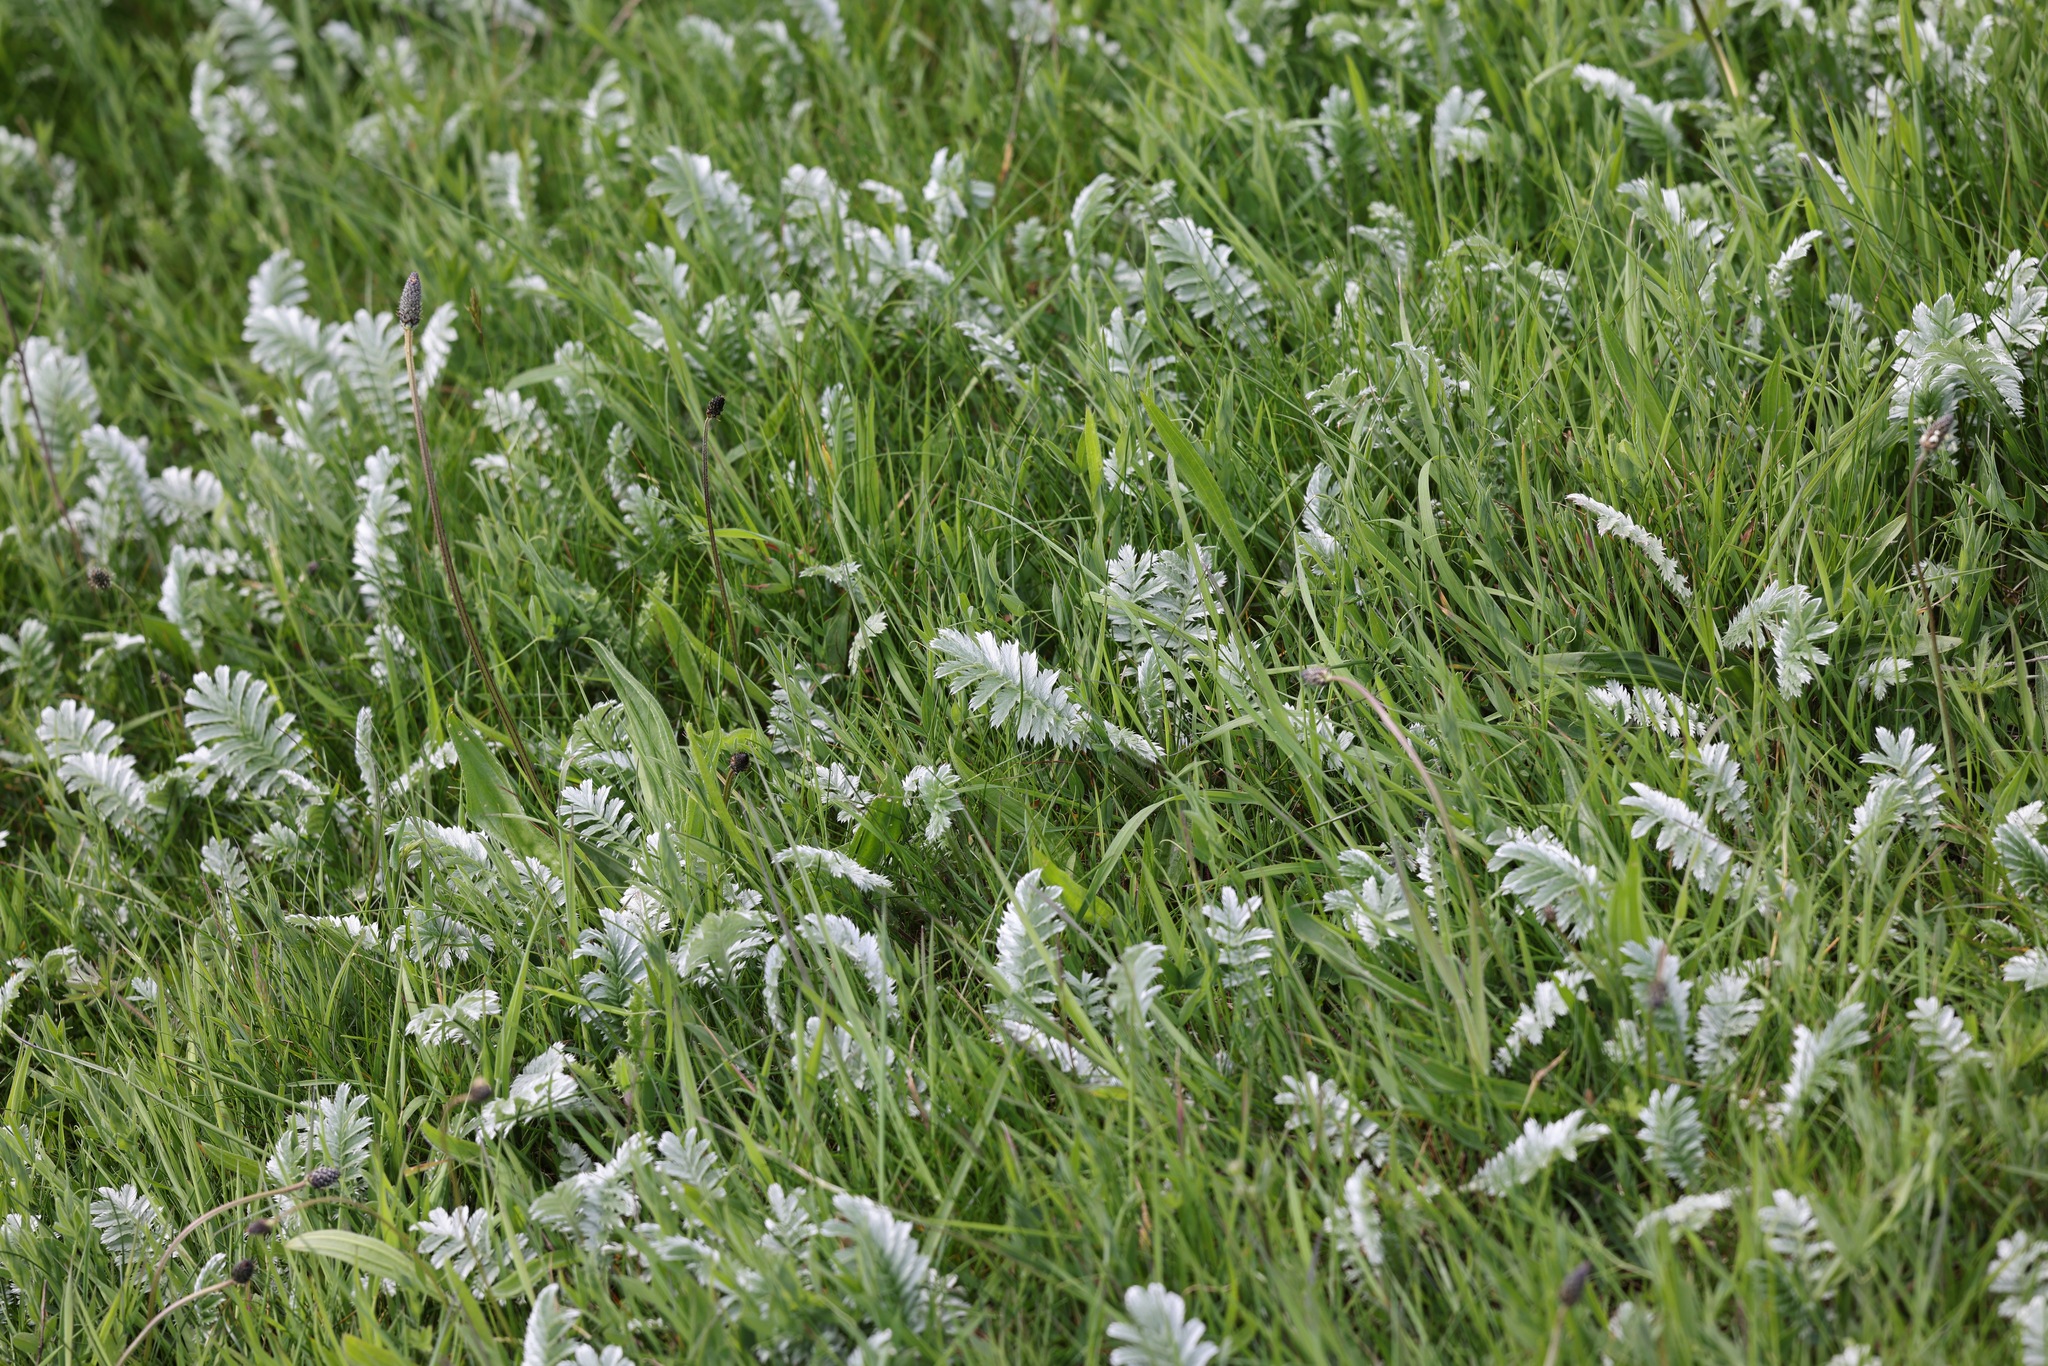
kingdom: Plantae
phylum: Tracheophyta
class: Magnoliopsida
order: Rosales
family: Rosaceae
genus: Argentina
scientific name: Argentina anserina
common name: Common silverweed
